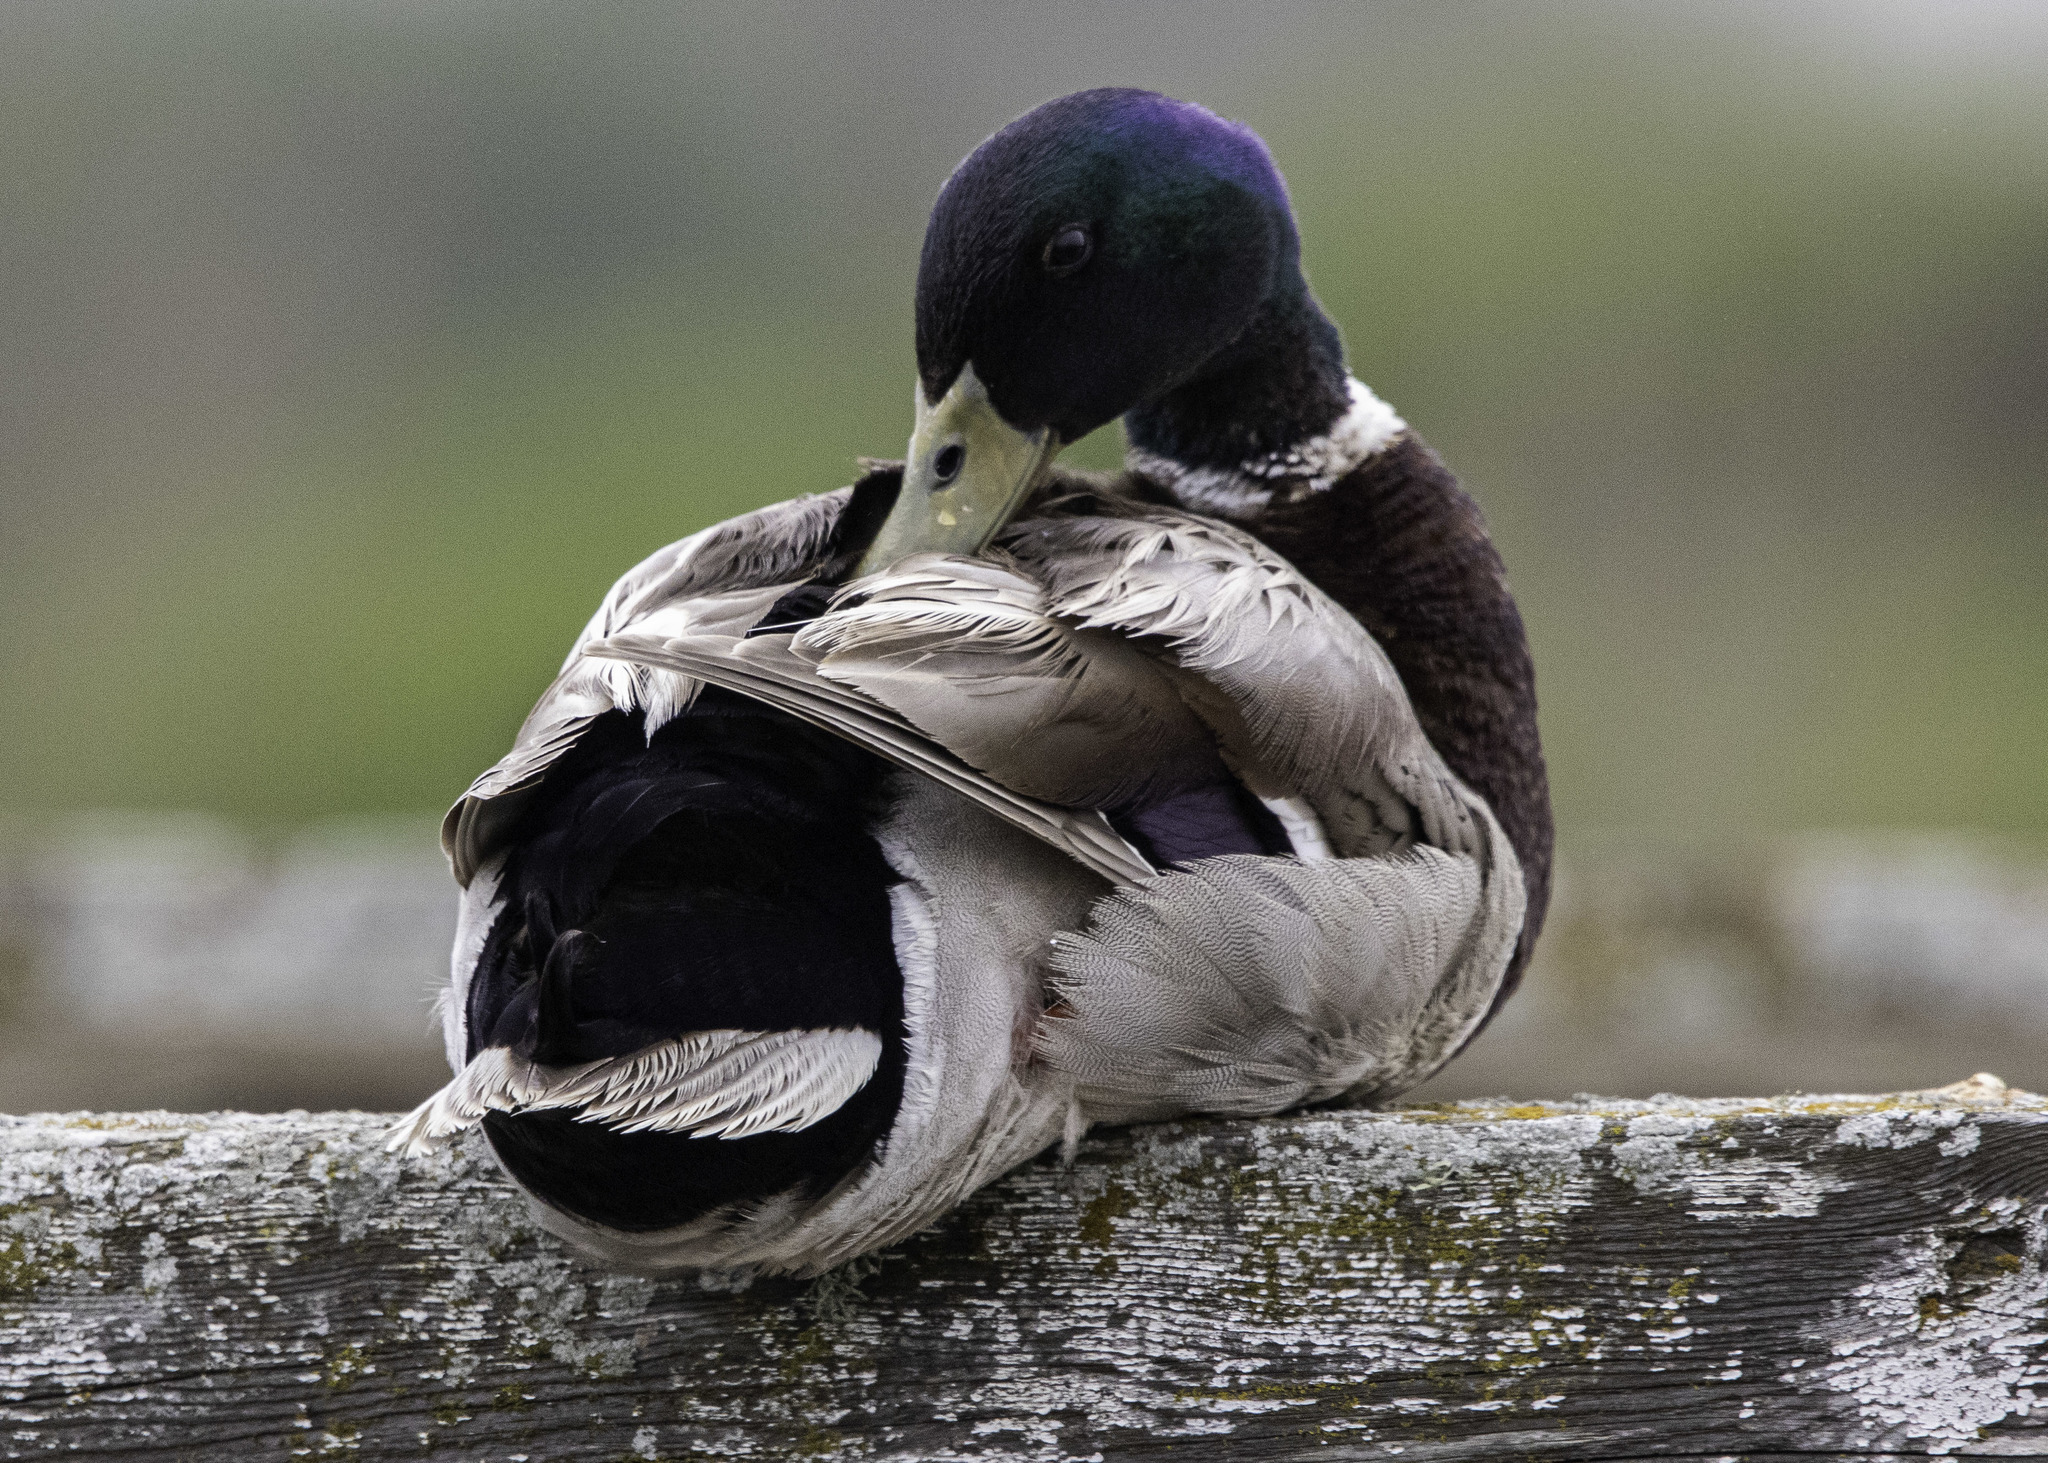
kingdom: Animalia
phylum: Chordata
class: Aves
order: Anseriformes
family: Anatidae
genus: Anas
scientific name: Anas platyrhynchos
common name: Mallard
